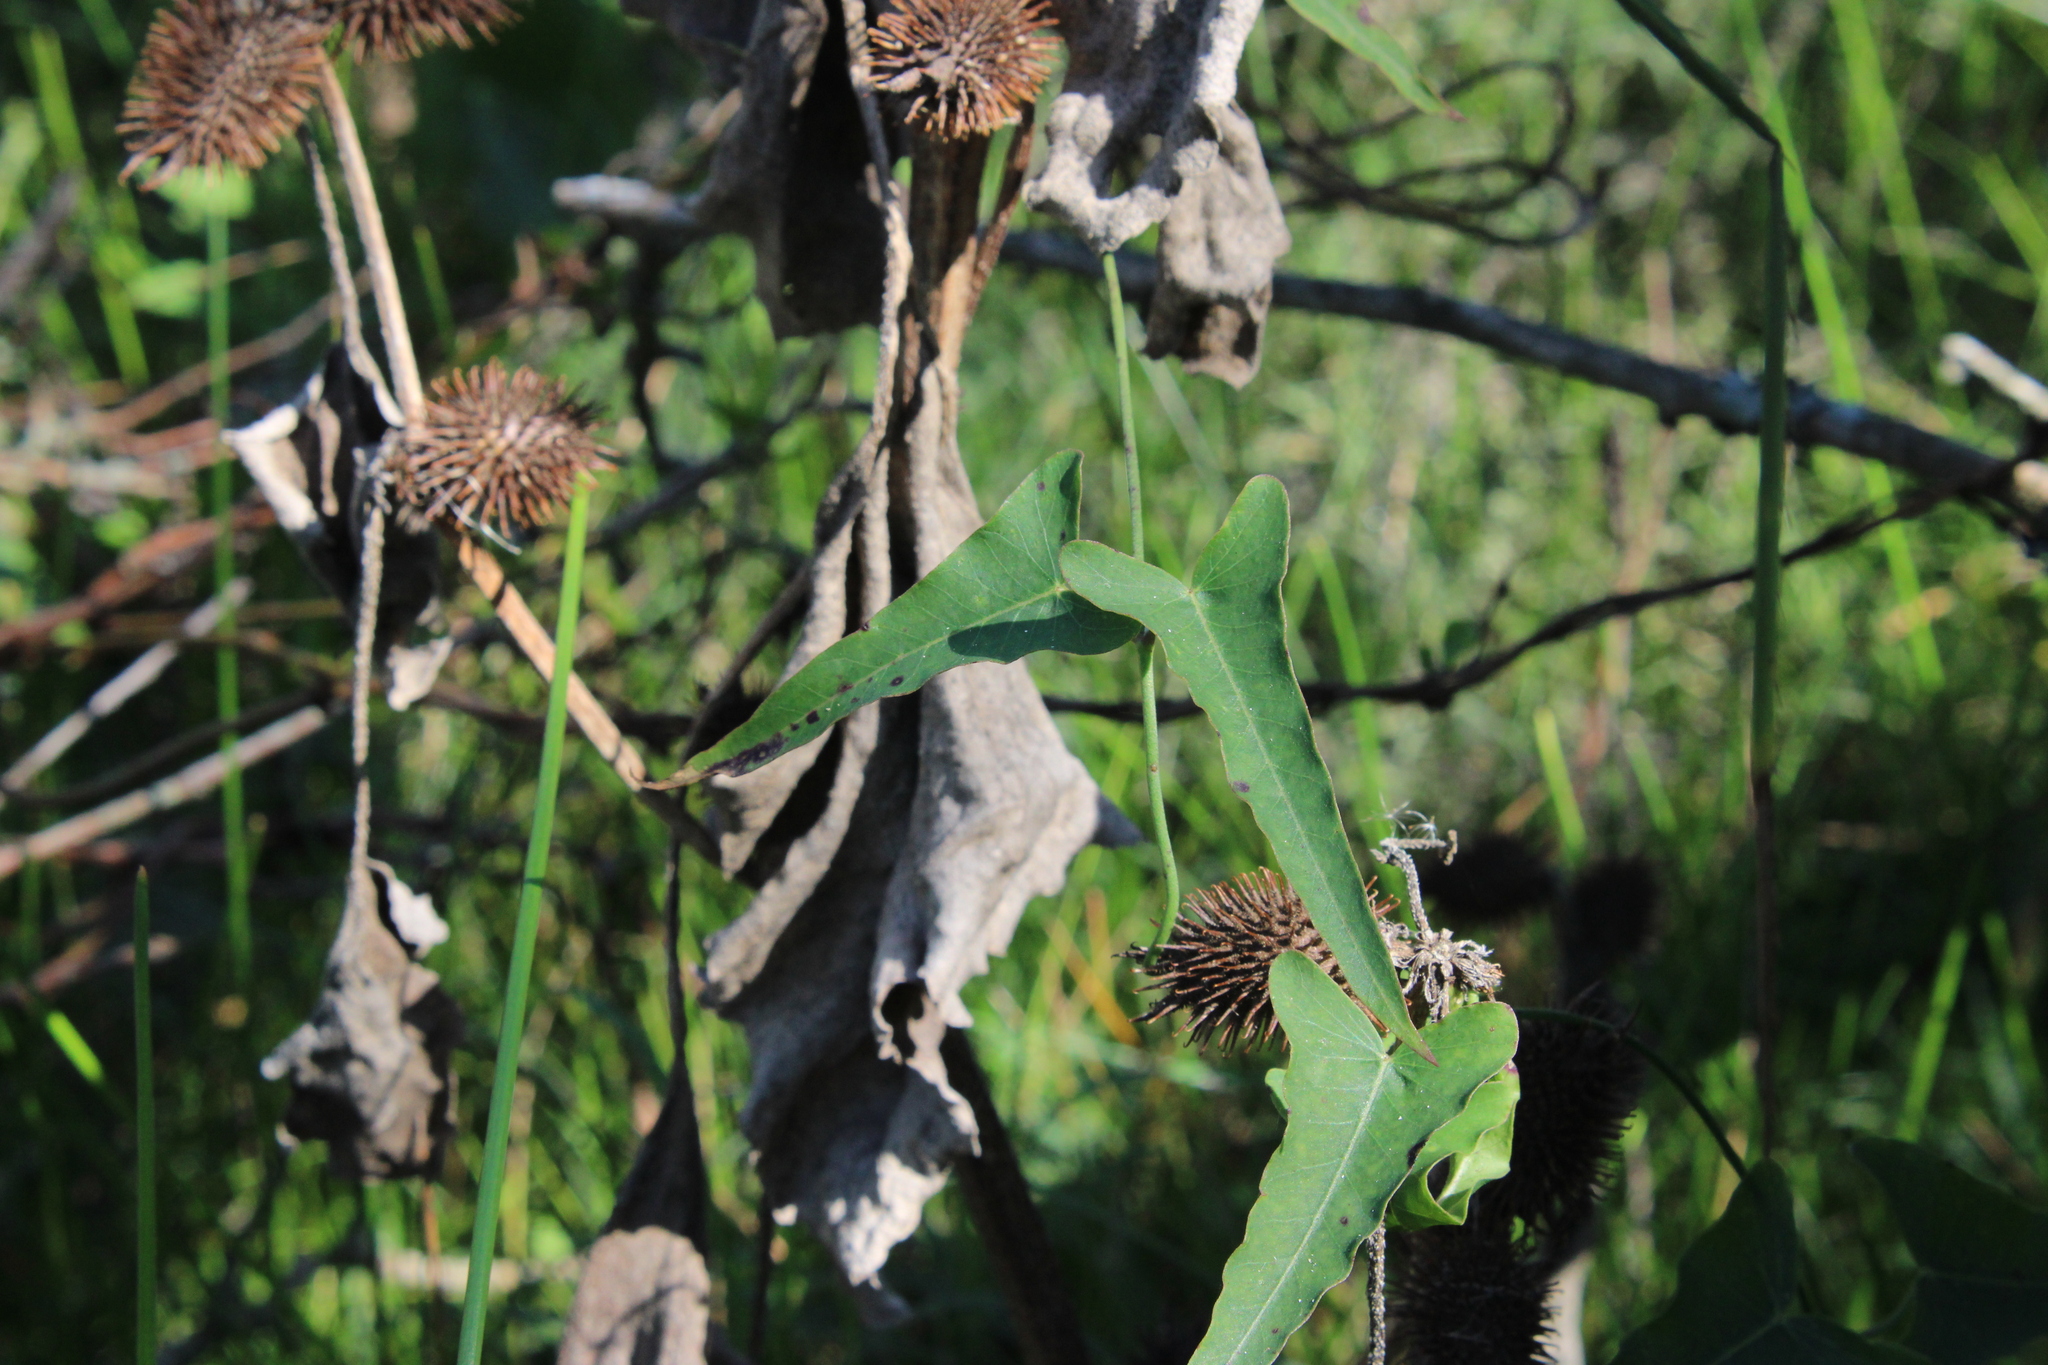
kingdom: Plantae
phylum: Tracheophyta
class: Magnoliopsida
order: Gentianales
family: Apocynaceae
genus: Araujia
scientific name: Araujia angustifolia
